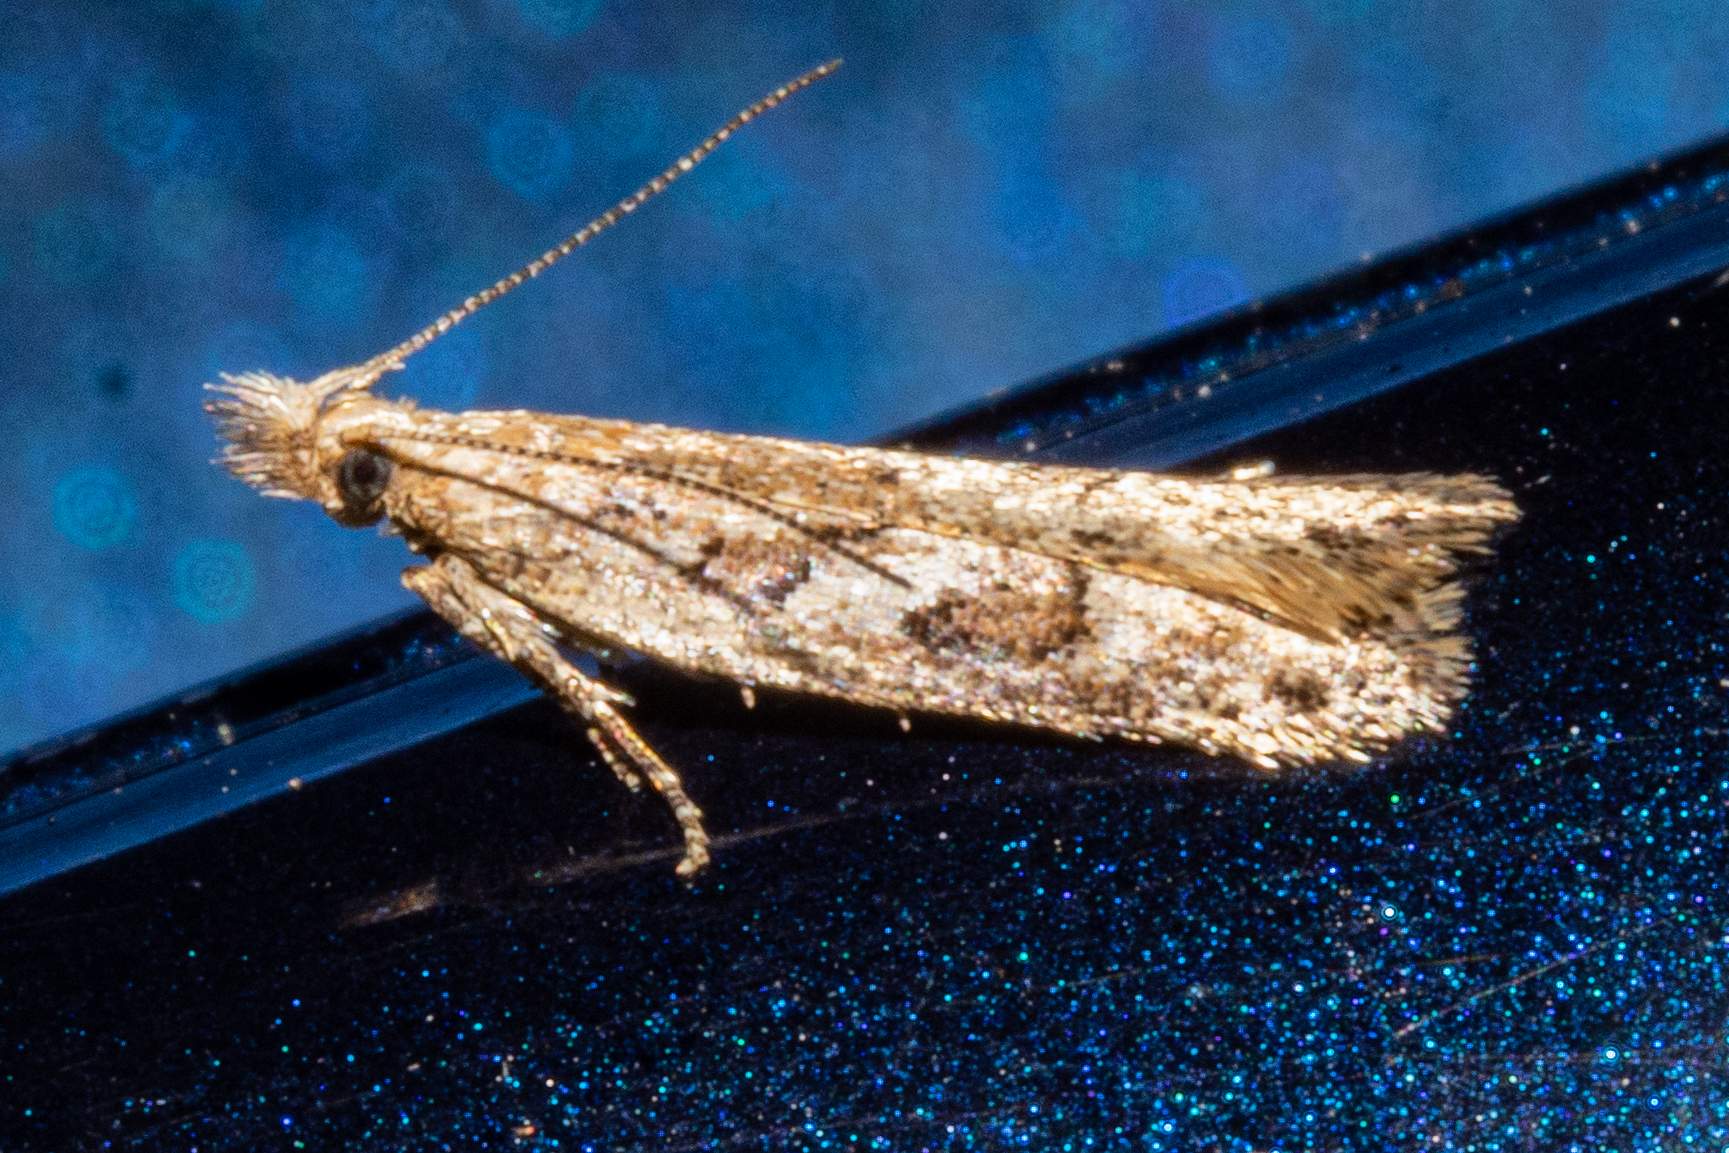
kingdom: Animalia
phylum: Arthropoda
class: Insecta
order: Lepidoptera
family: Oecophoridae
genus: Thamnosara
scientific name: Thamnosara sublitella
